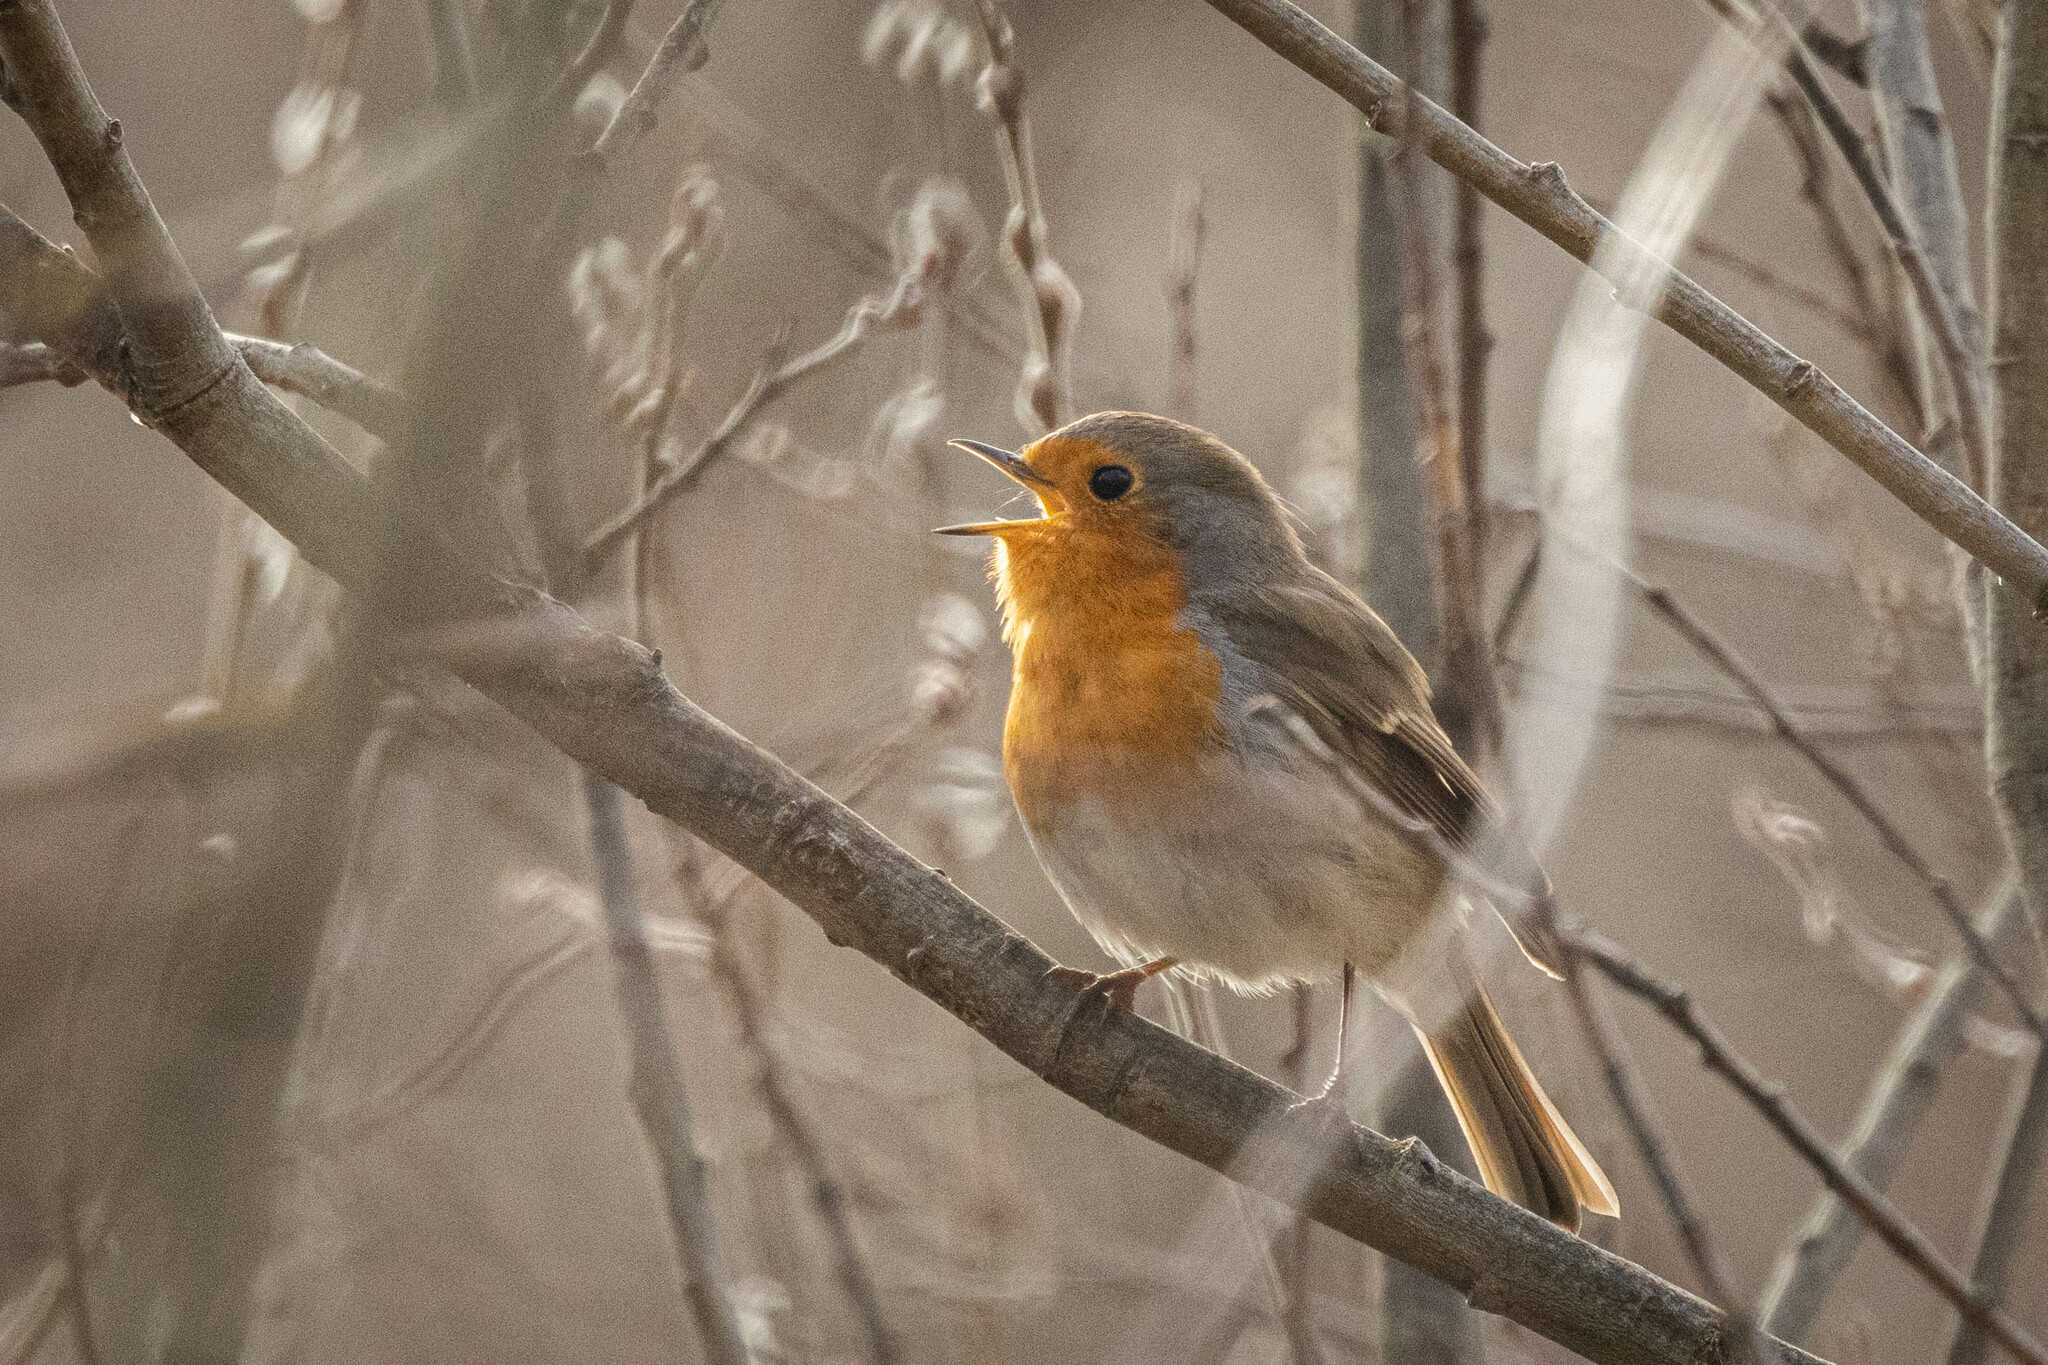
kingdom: Animalia
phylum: Chordata
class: Aves
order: Passeriformes
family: Muscicapidae
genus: Erithacus
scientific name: Erithacus rubecula
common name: European robin
